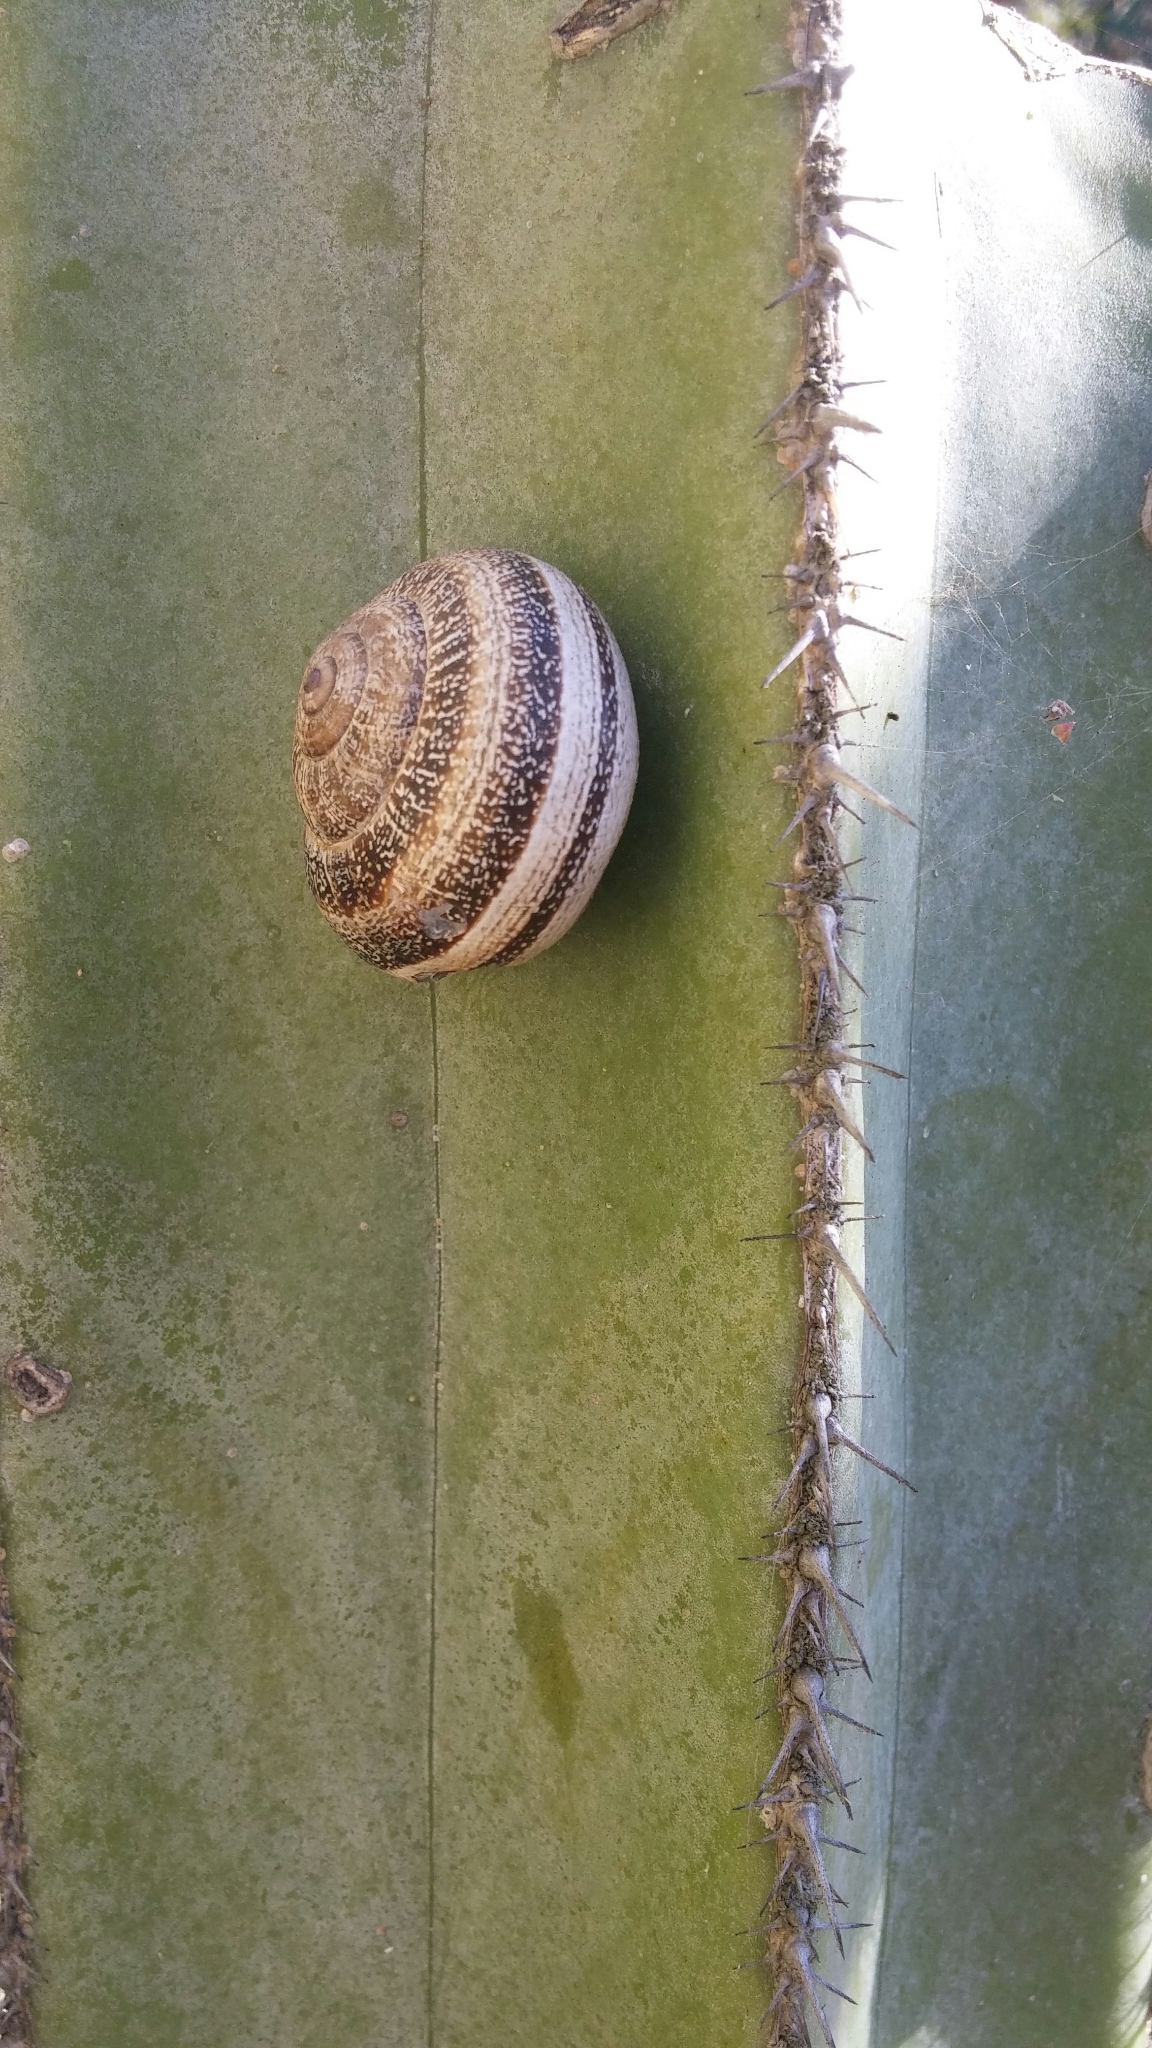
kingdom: Animalia
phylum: Mollusca
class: Gastropoda
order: Stylommatophora
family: Helicidae
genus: Otala
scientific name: Otala lactea
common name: Milk snail
